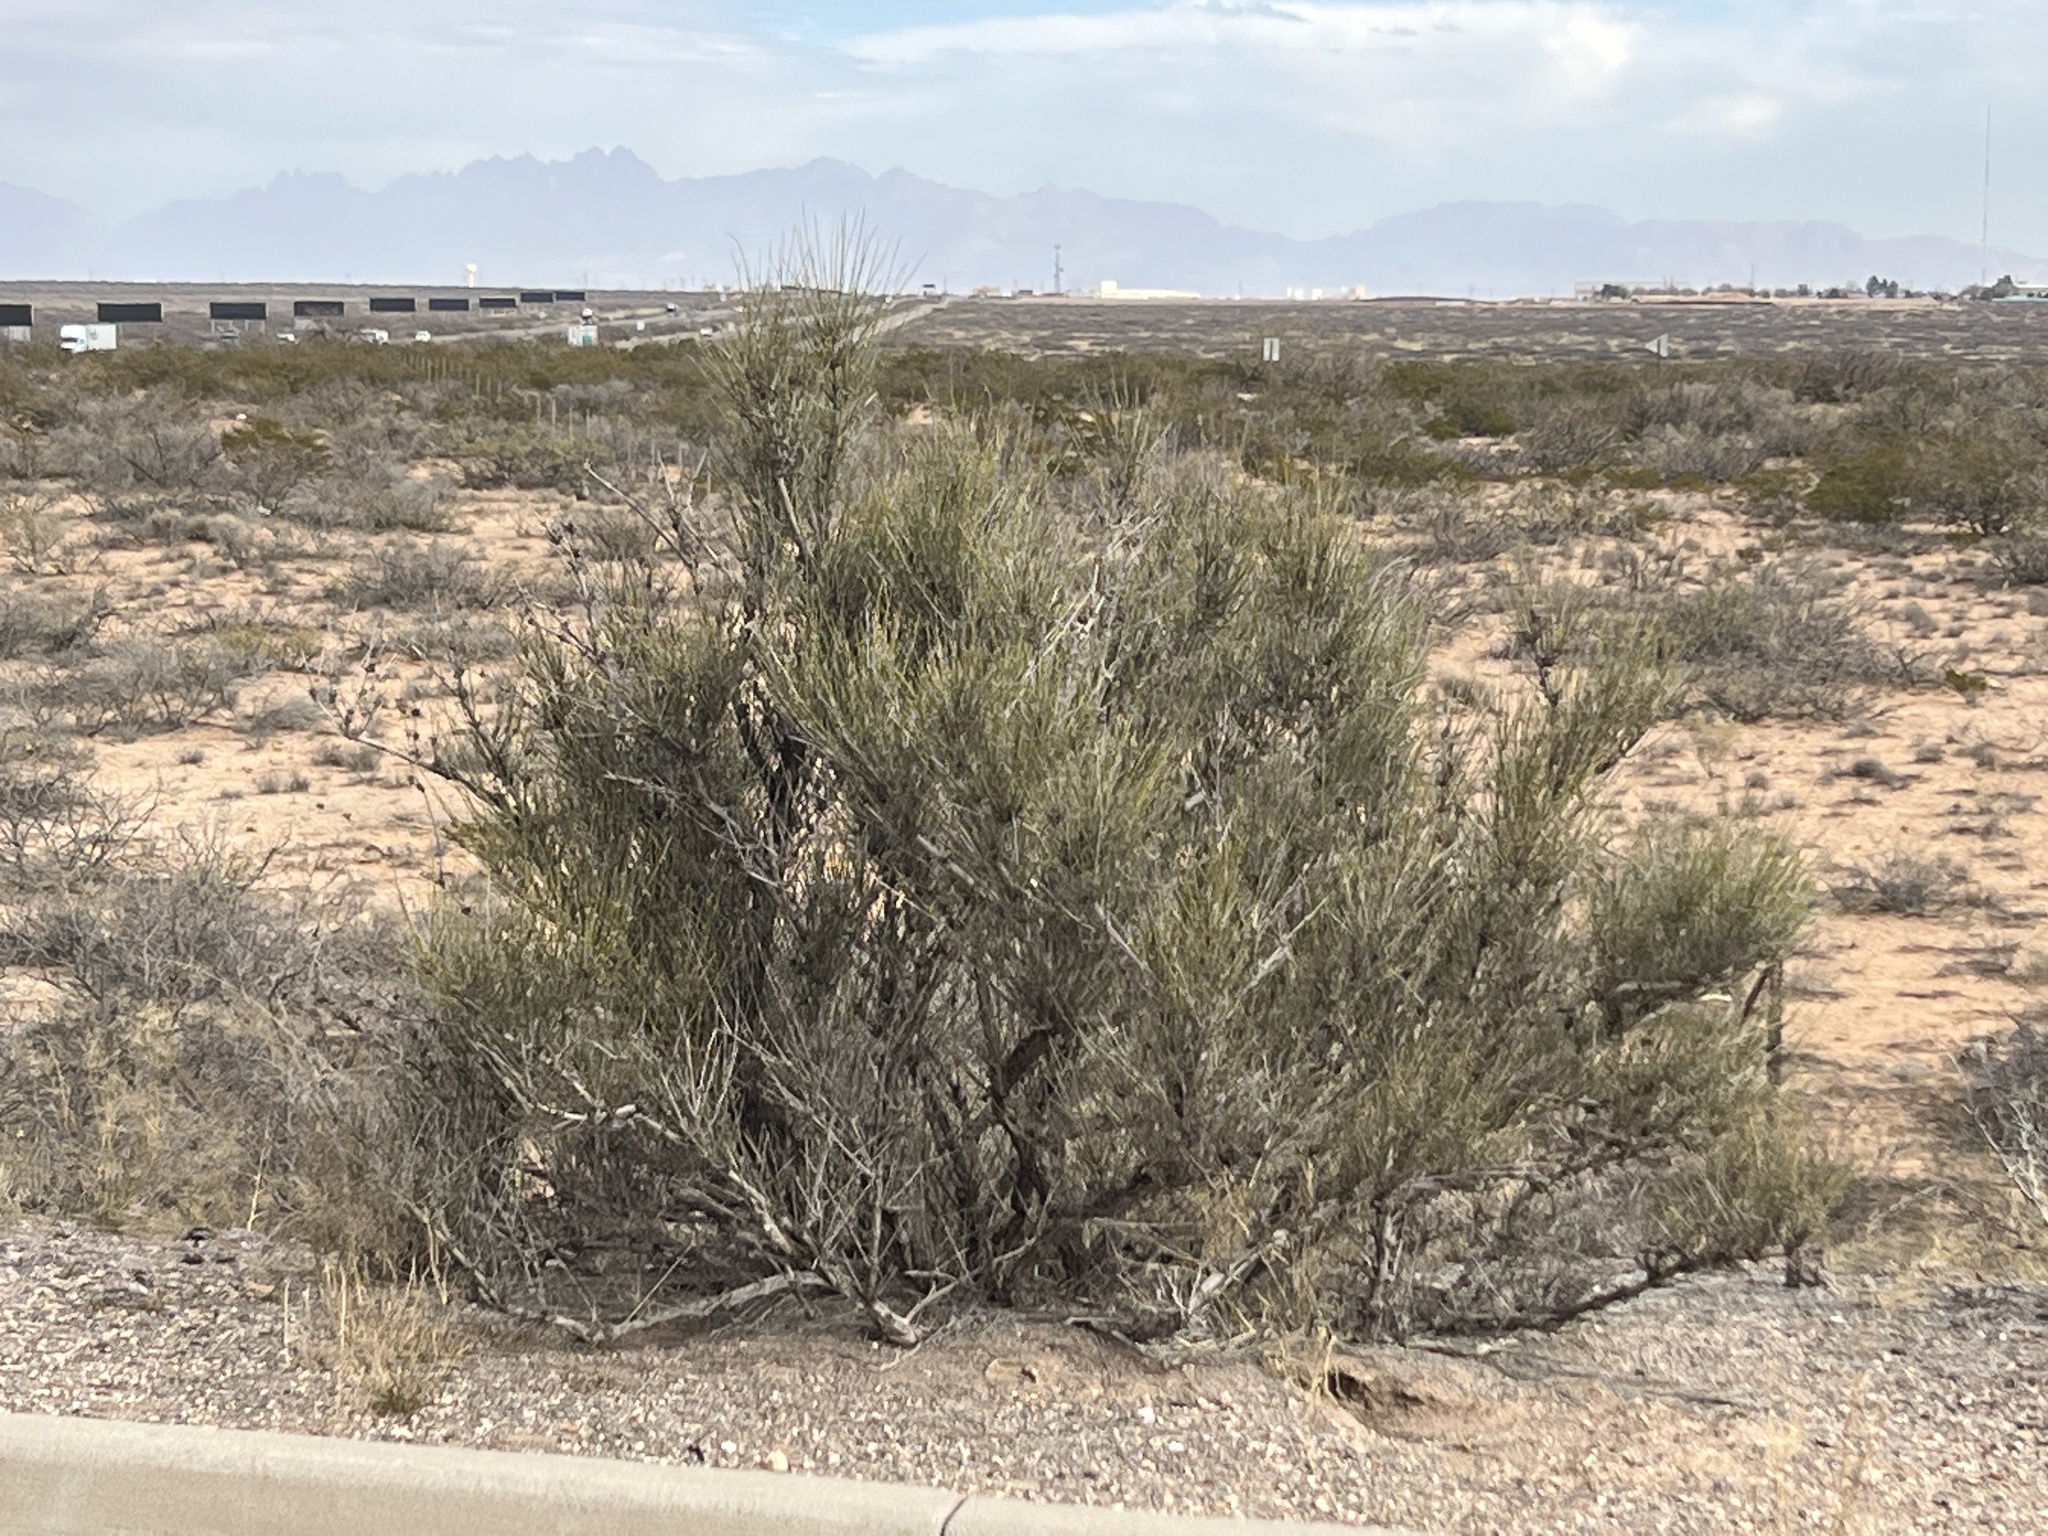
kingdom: Plantae
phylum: Tracheophyta
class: Gnetopsida
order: Ephedrales
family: Ephedraceae
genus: Ephedra
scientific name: Ephedra trifurca
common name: Mexican-tea
